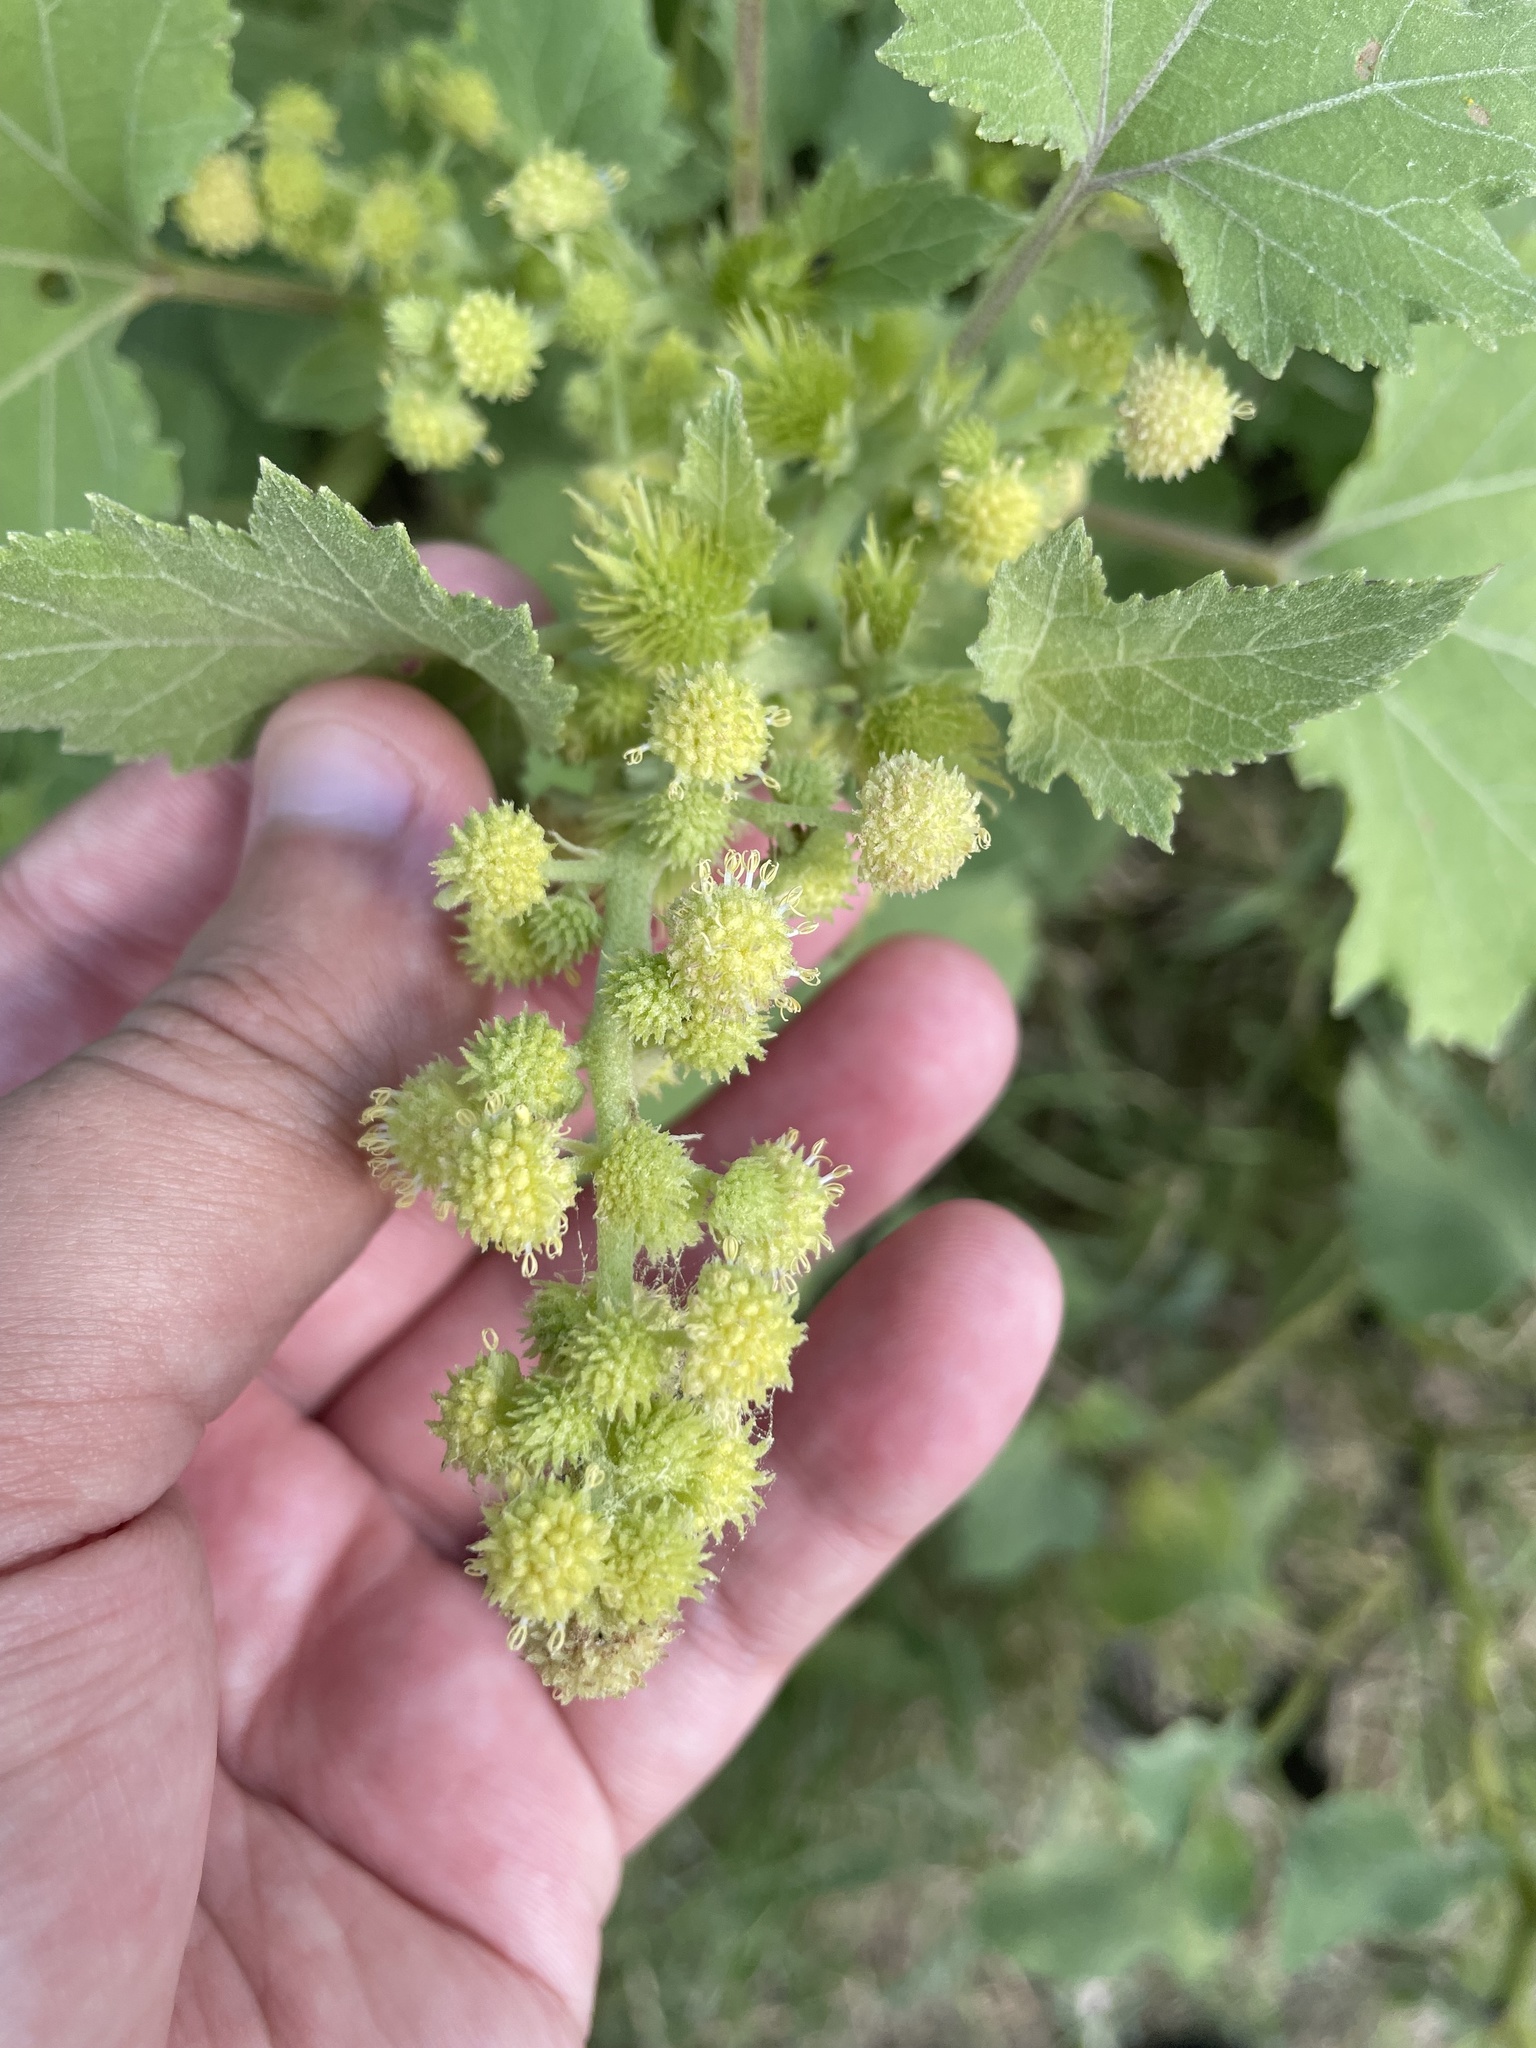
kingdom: Plantae
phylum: Tracheophyta
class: Magnoliopsida
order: Asterales
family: Asteraceae
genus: Xanthium
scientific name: Xanthium strumarium
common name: Rough cocklebur
